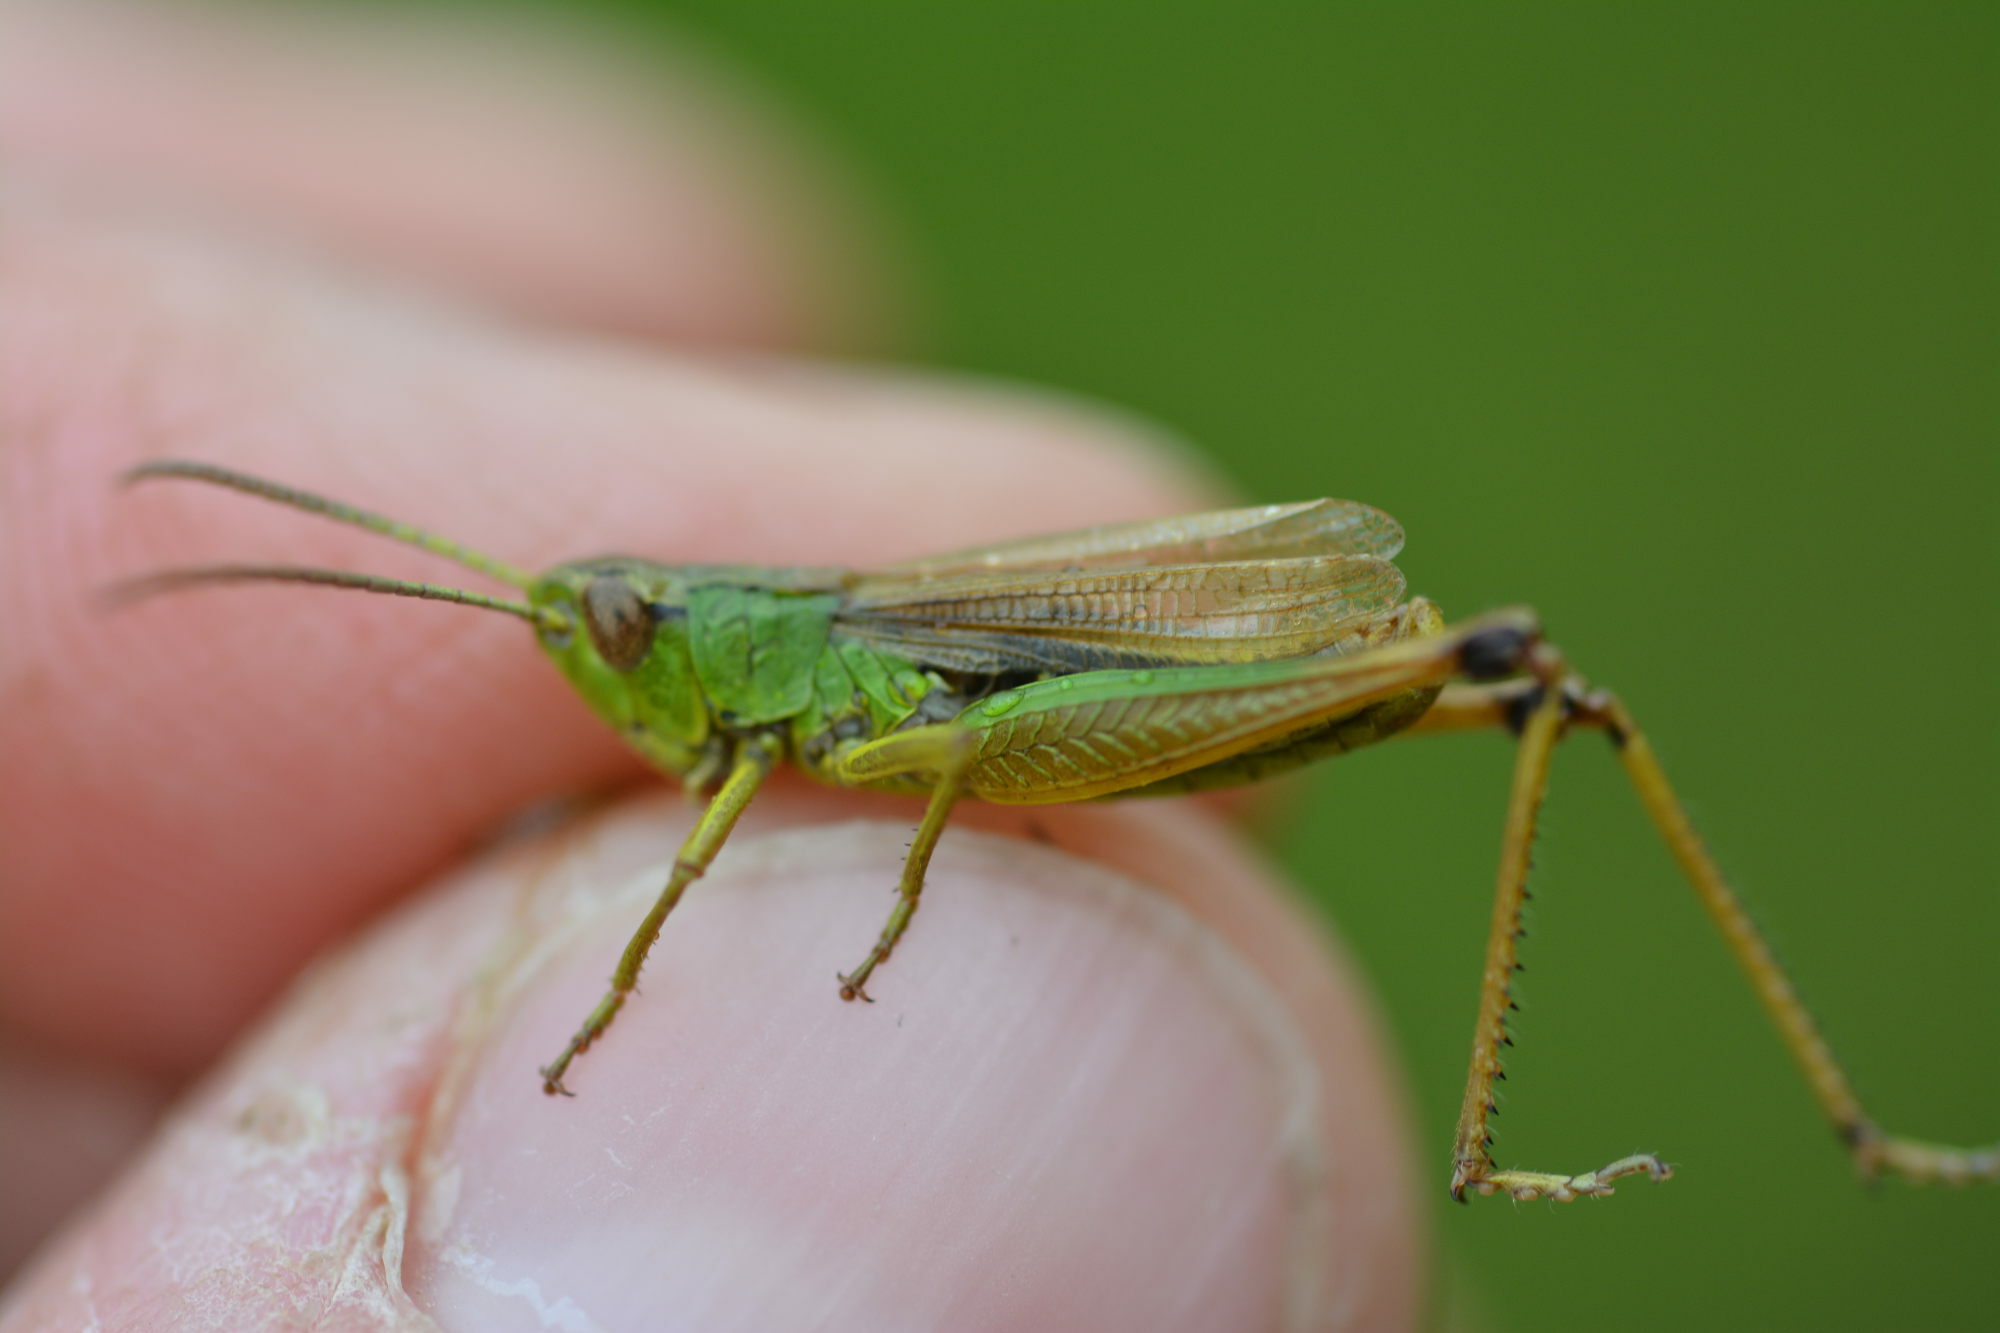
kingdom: Animalia
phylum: Arthropoda
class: Insecta
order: Orthoptera
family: Acrididae
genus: Pseudochorthippus
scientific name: Pseudochorthippus parallelus
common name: Meadow grasshopper
